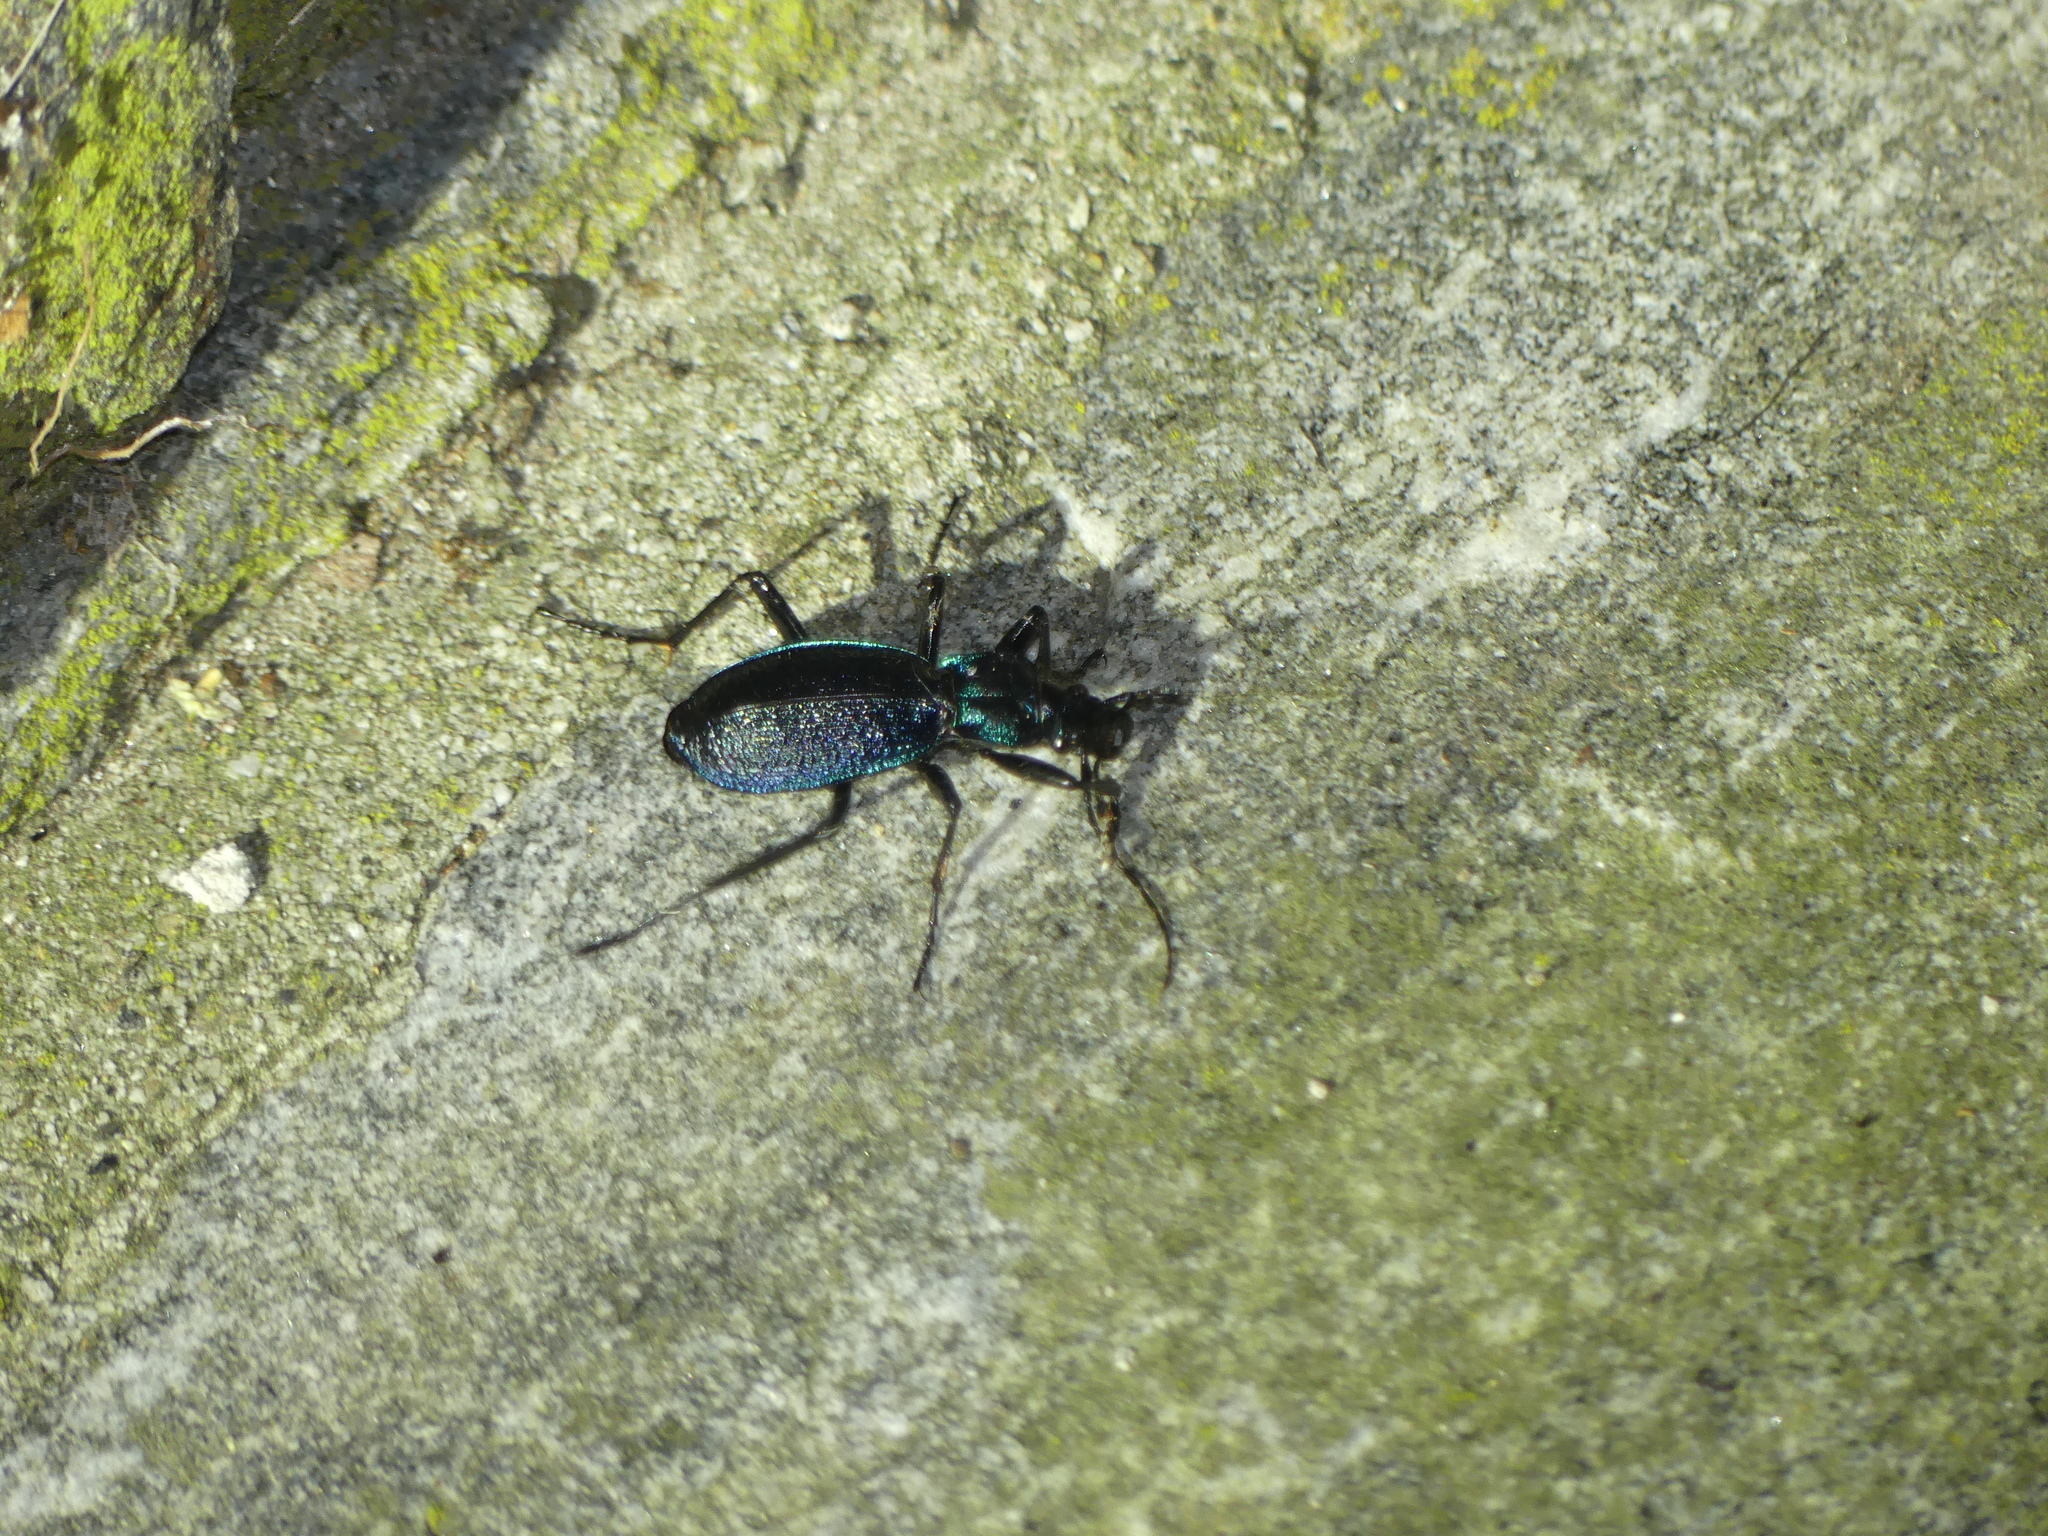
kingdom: Animalia
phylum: Arthropoda
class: Insecta
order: Coleoptera
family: Carabidae
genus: Carabus
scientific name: Carabus intricatus
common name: Blue ground beetle
